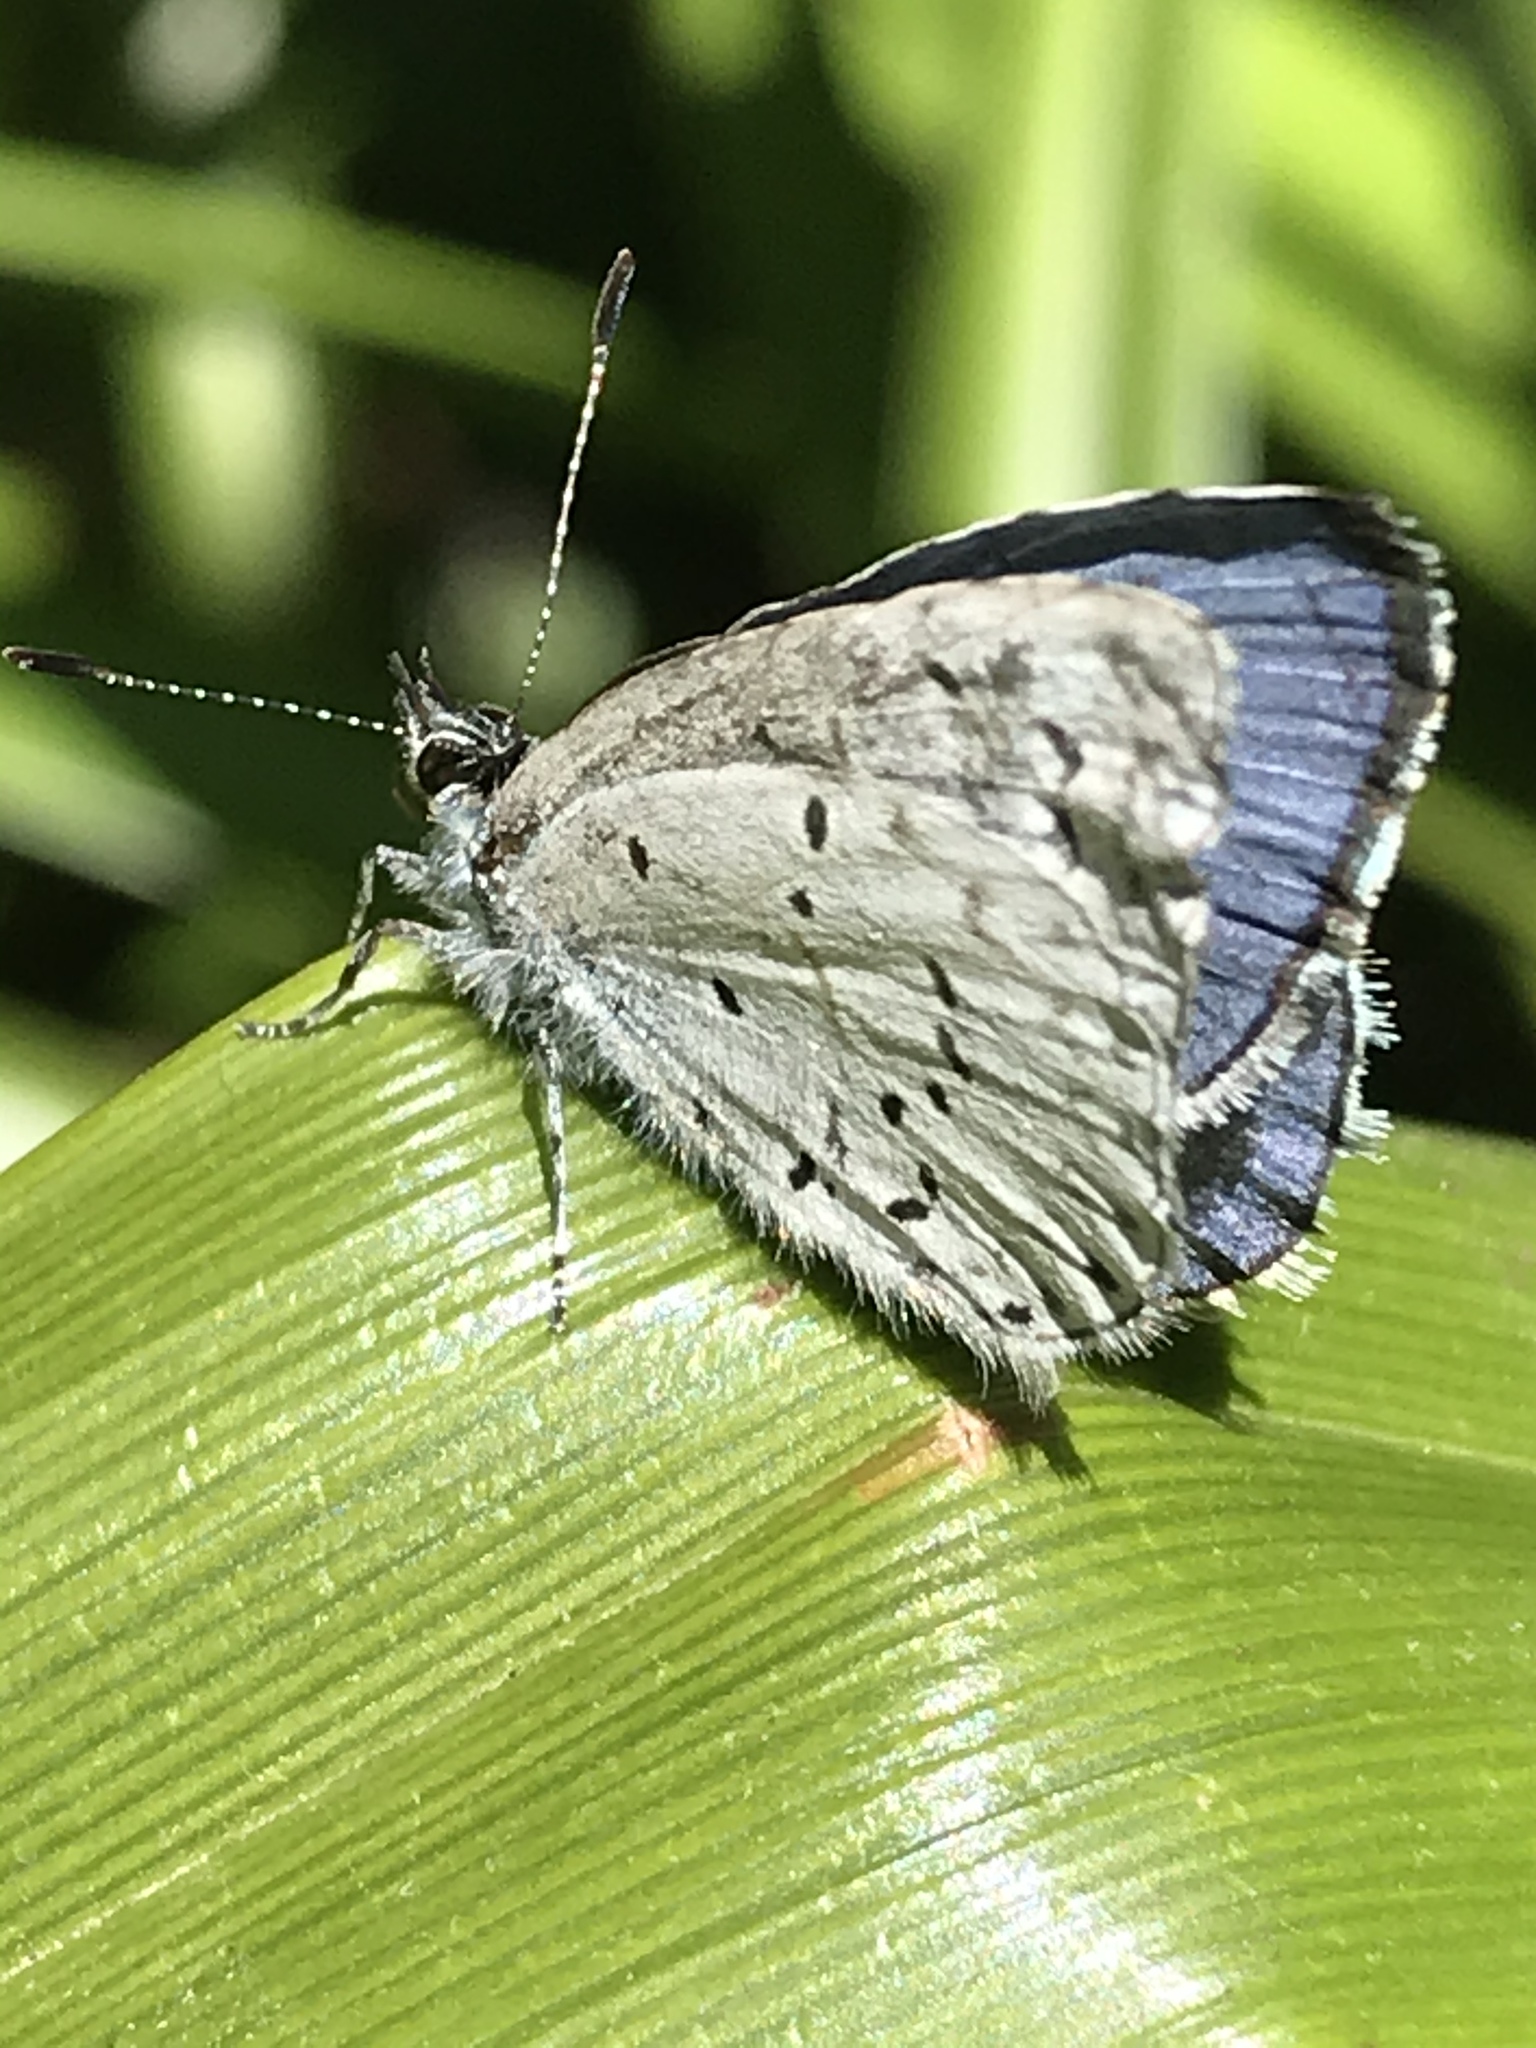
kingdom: Animalia
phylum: Arthropoda
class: Insecta
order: Lepidoptera
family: Lycaenidae
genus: Celastrina
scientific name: Celastrina ladon
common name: Spring azure
